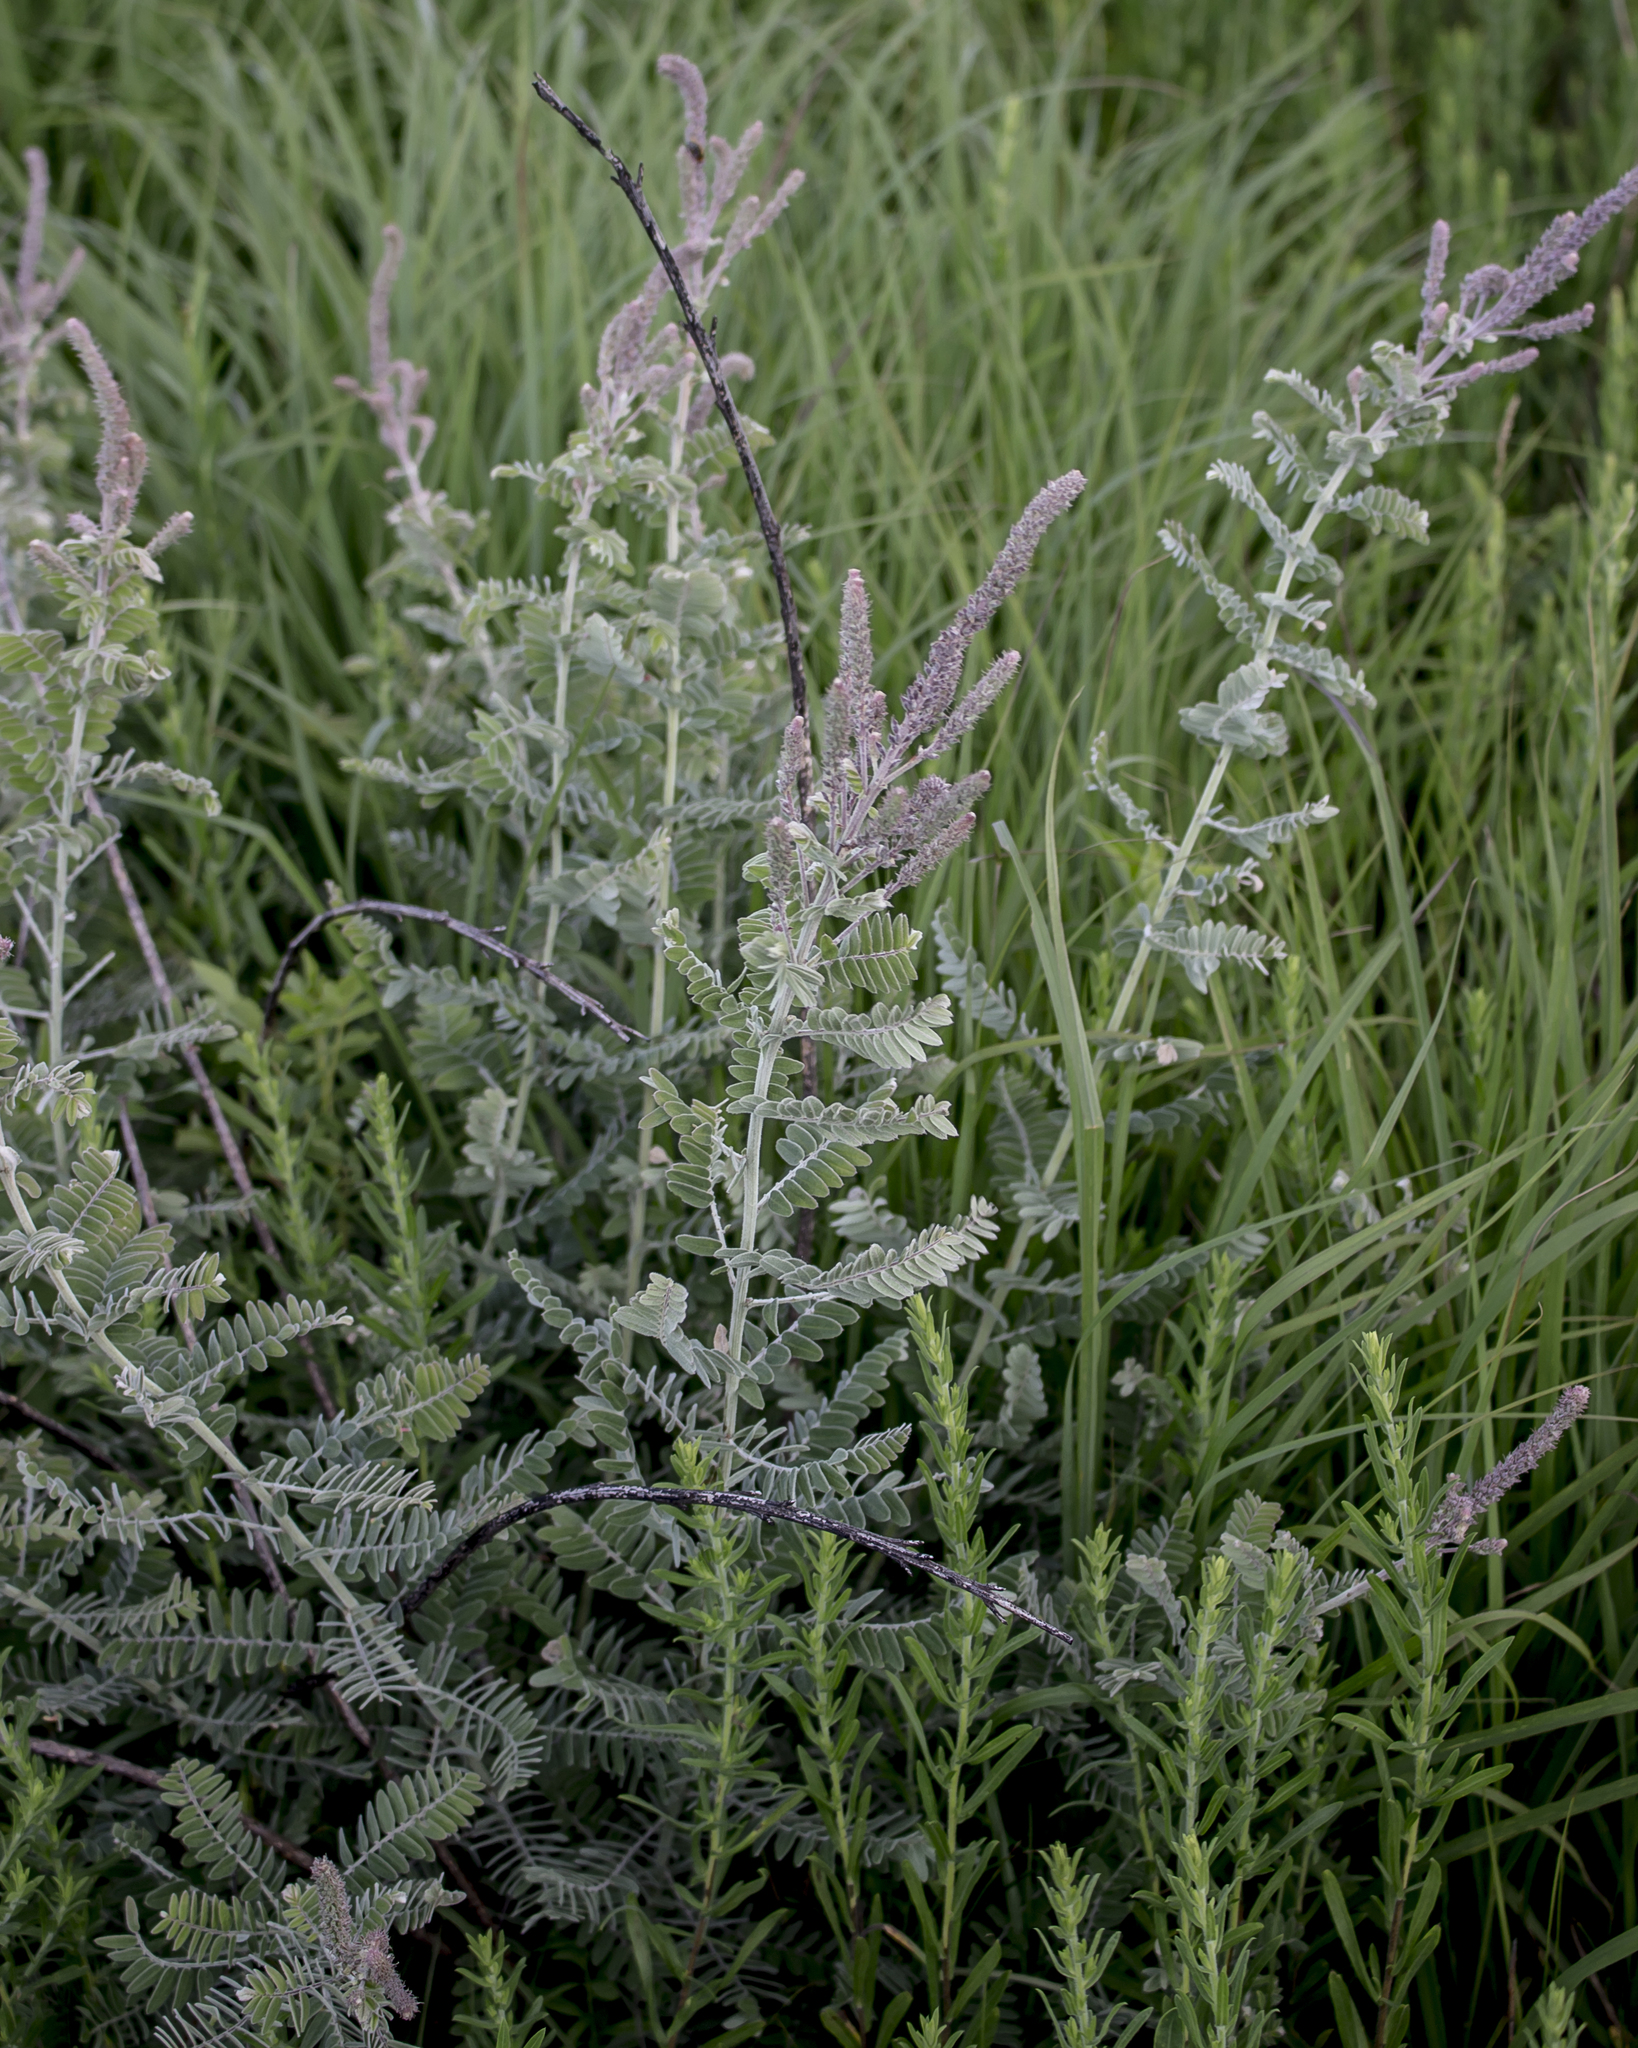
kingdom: Plantae
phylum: Tracheophyta
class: Magnoliopsida
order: Fabales
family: Fabaceae
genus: Amorpha
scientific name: Amorpha canescens
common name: Leadplant
